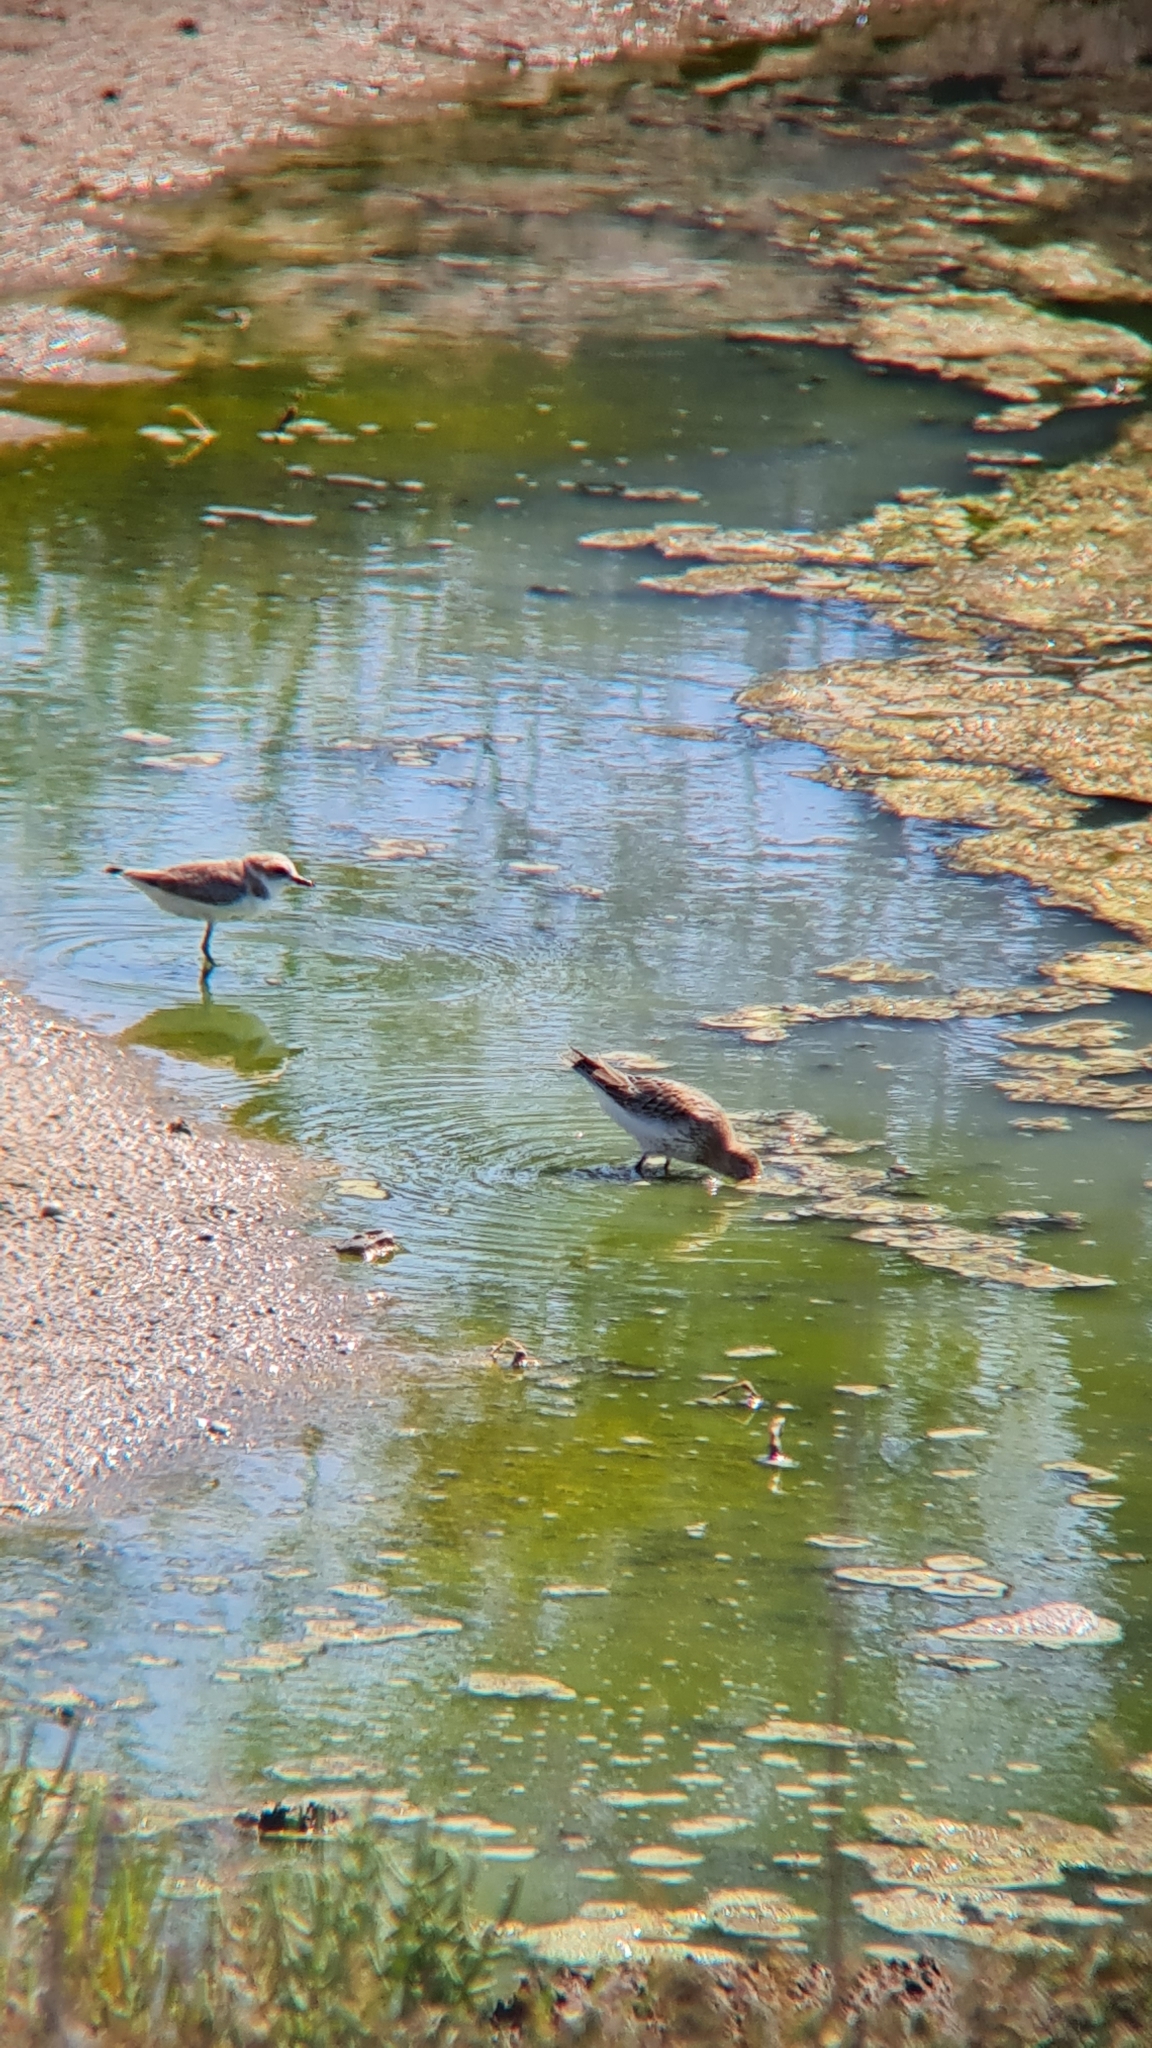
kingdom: Animalia
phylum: Chordata
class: Aves
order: Charadriiformes
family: Scolopacidae
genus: Calidris
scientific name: Calidris alpina
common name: Dunlin
